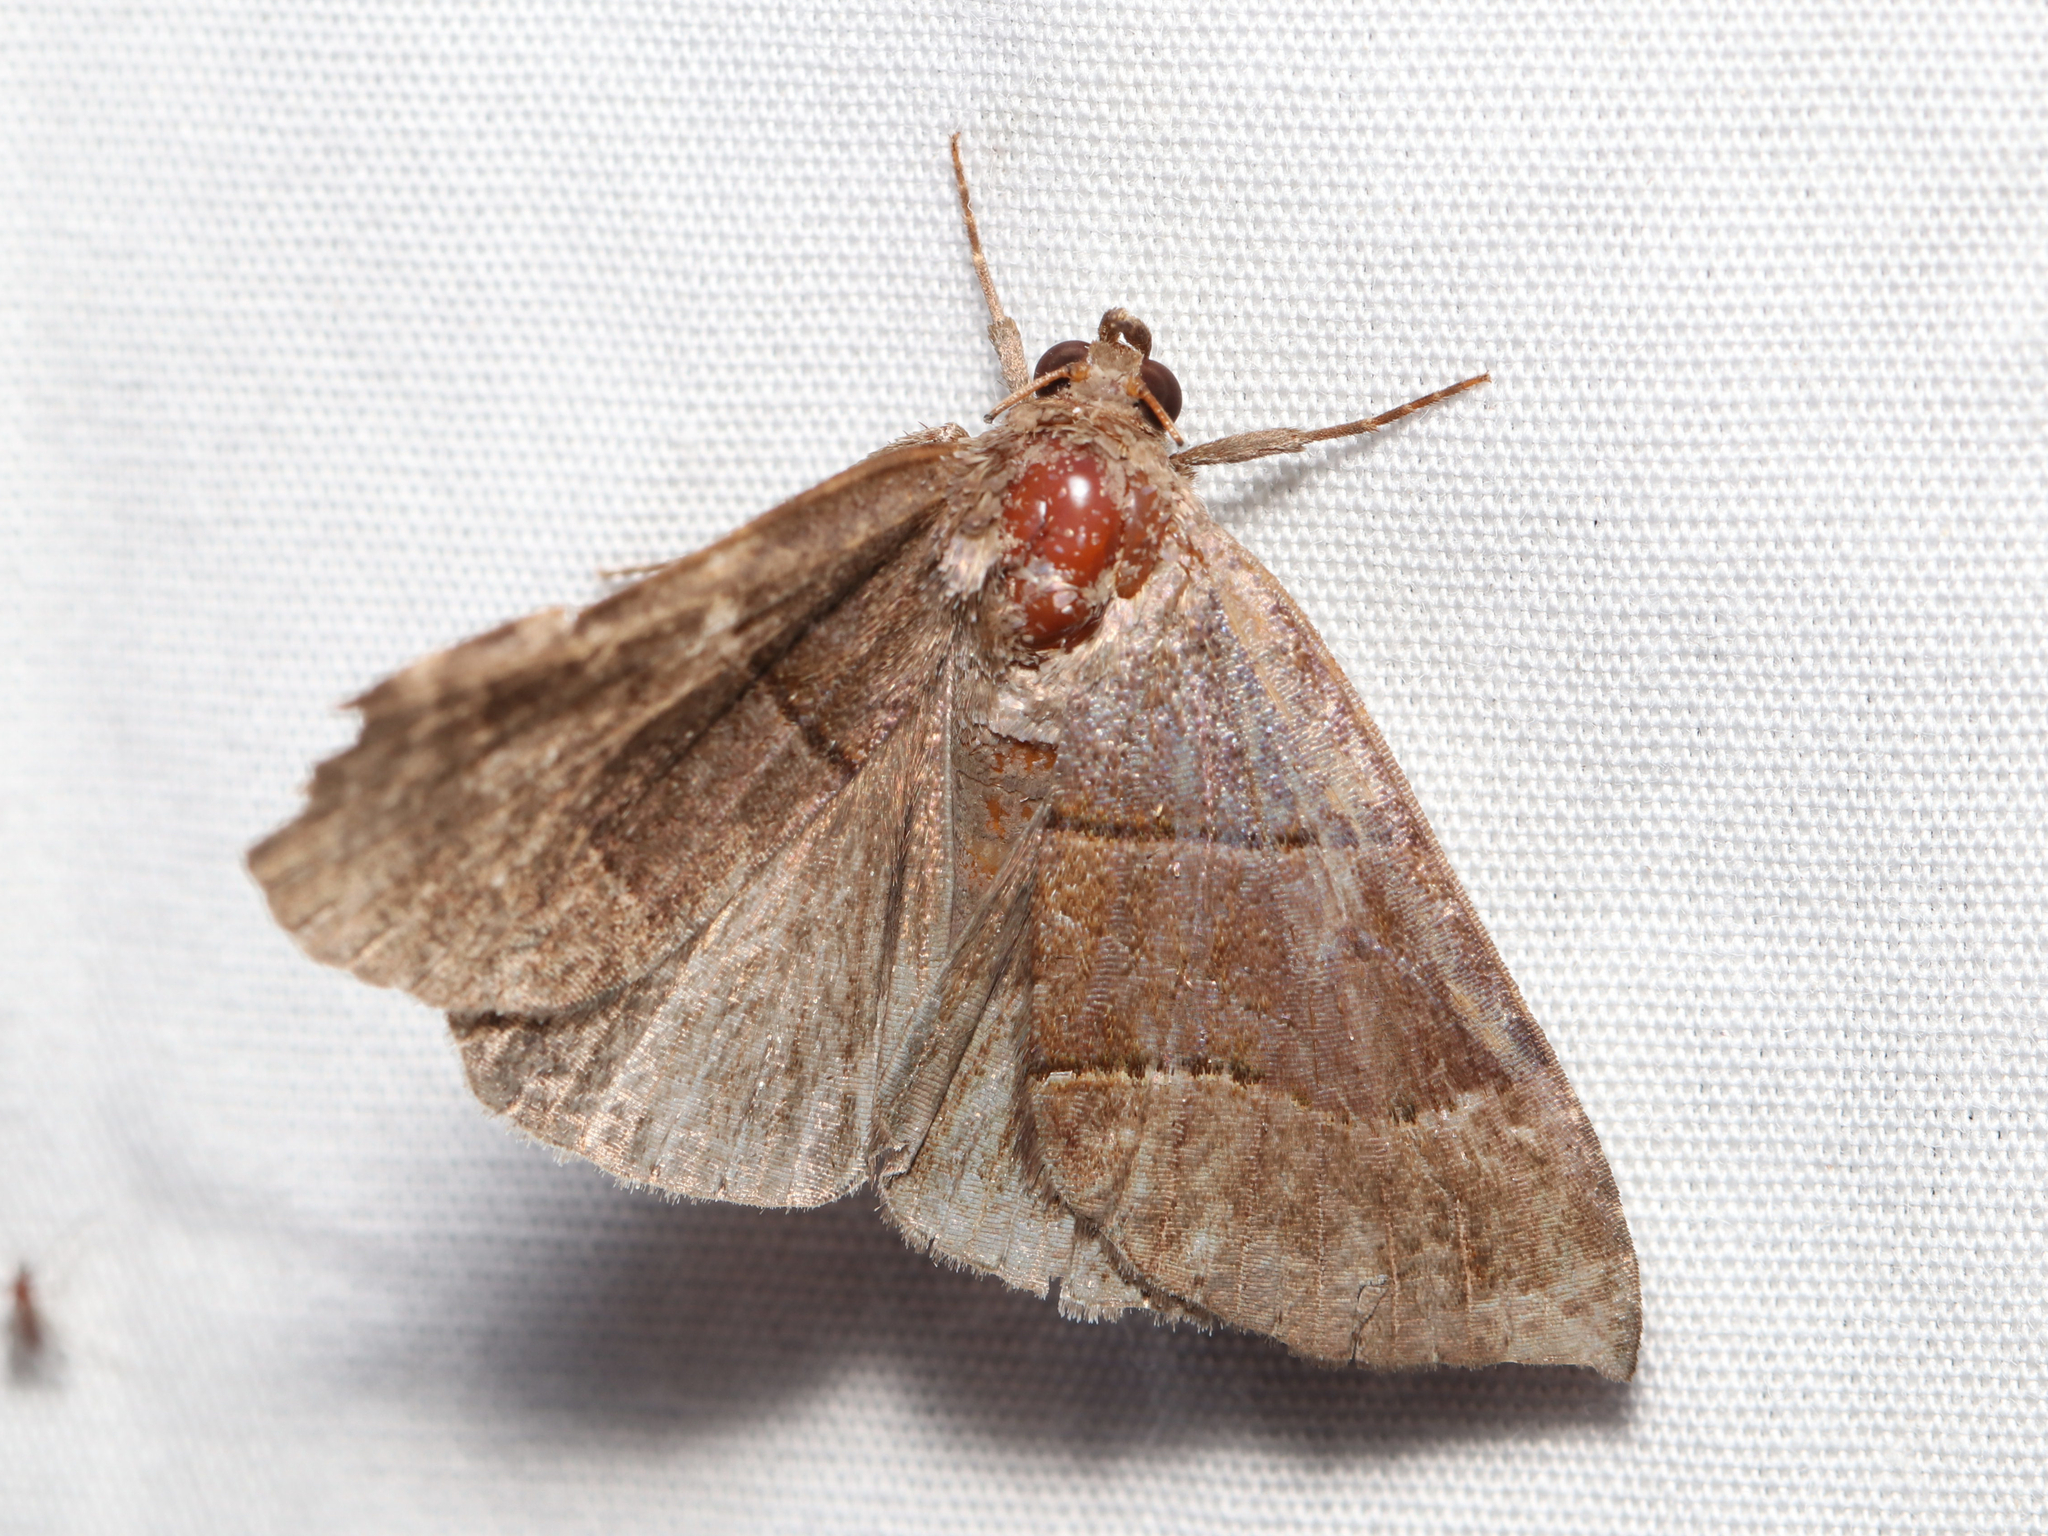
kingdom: Animalia
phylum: Arthropoda
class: Insecta
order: Lepidoptera
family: Erebidae
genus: Parallelia
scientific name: Parallelia bistriaris
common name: Maple looper moth
